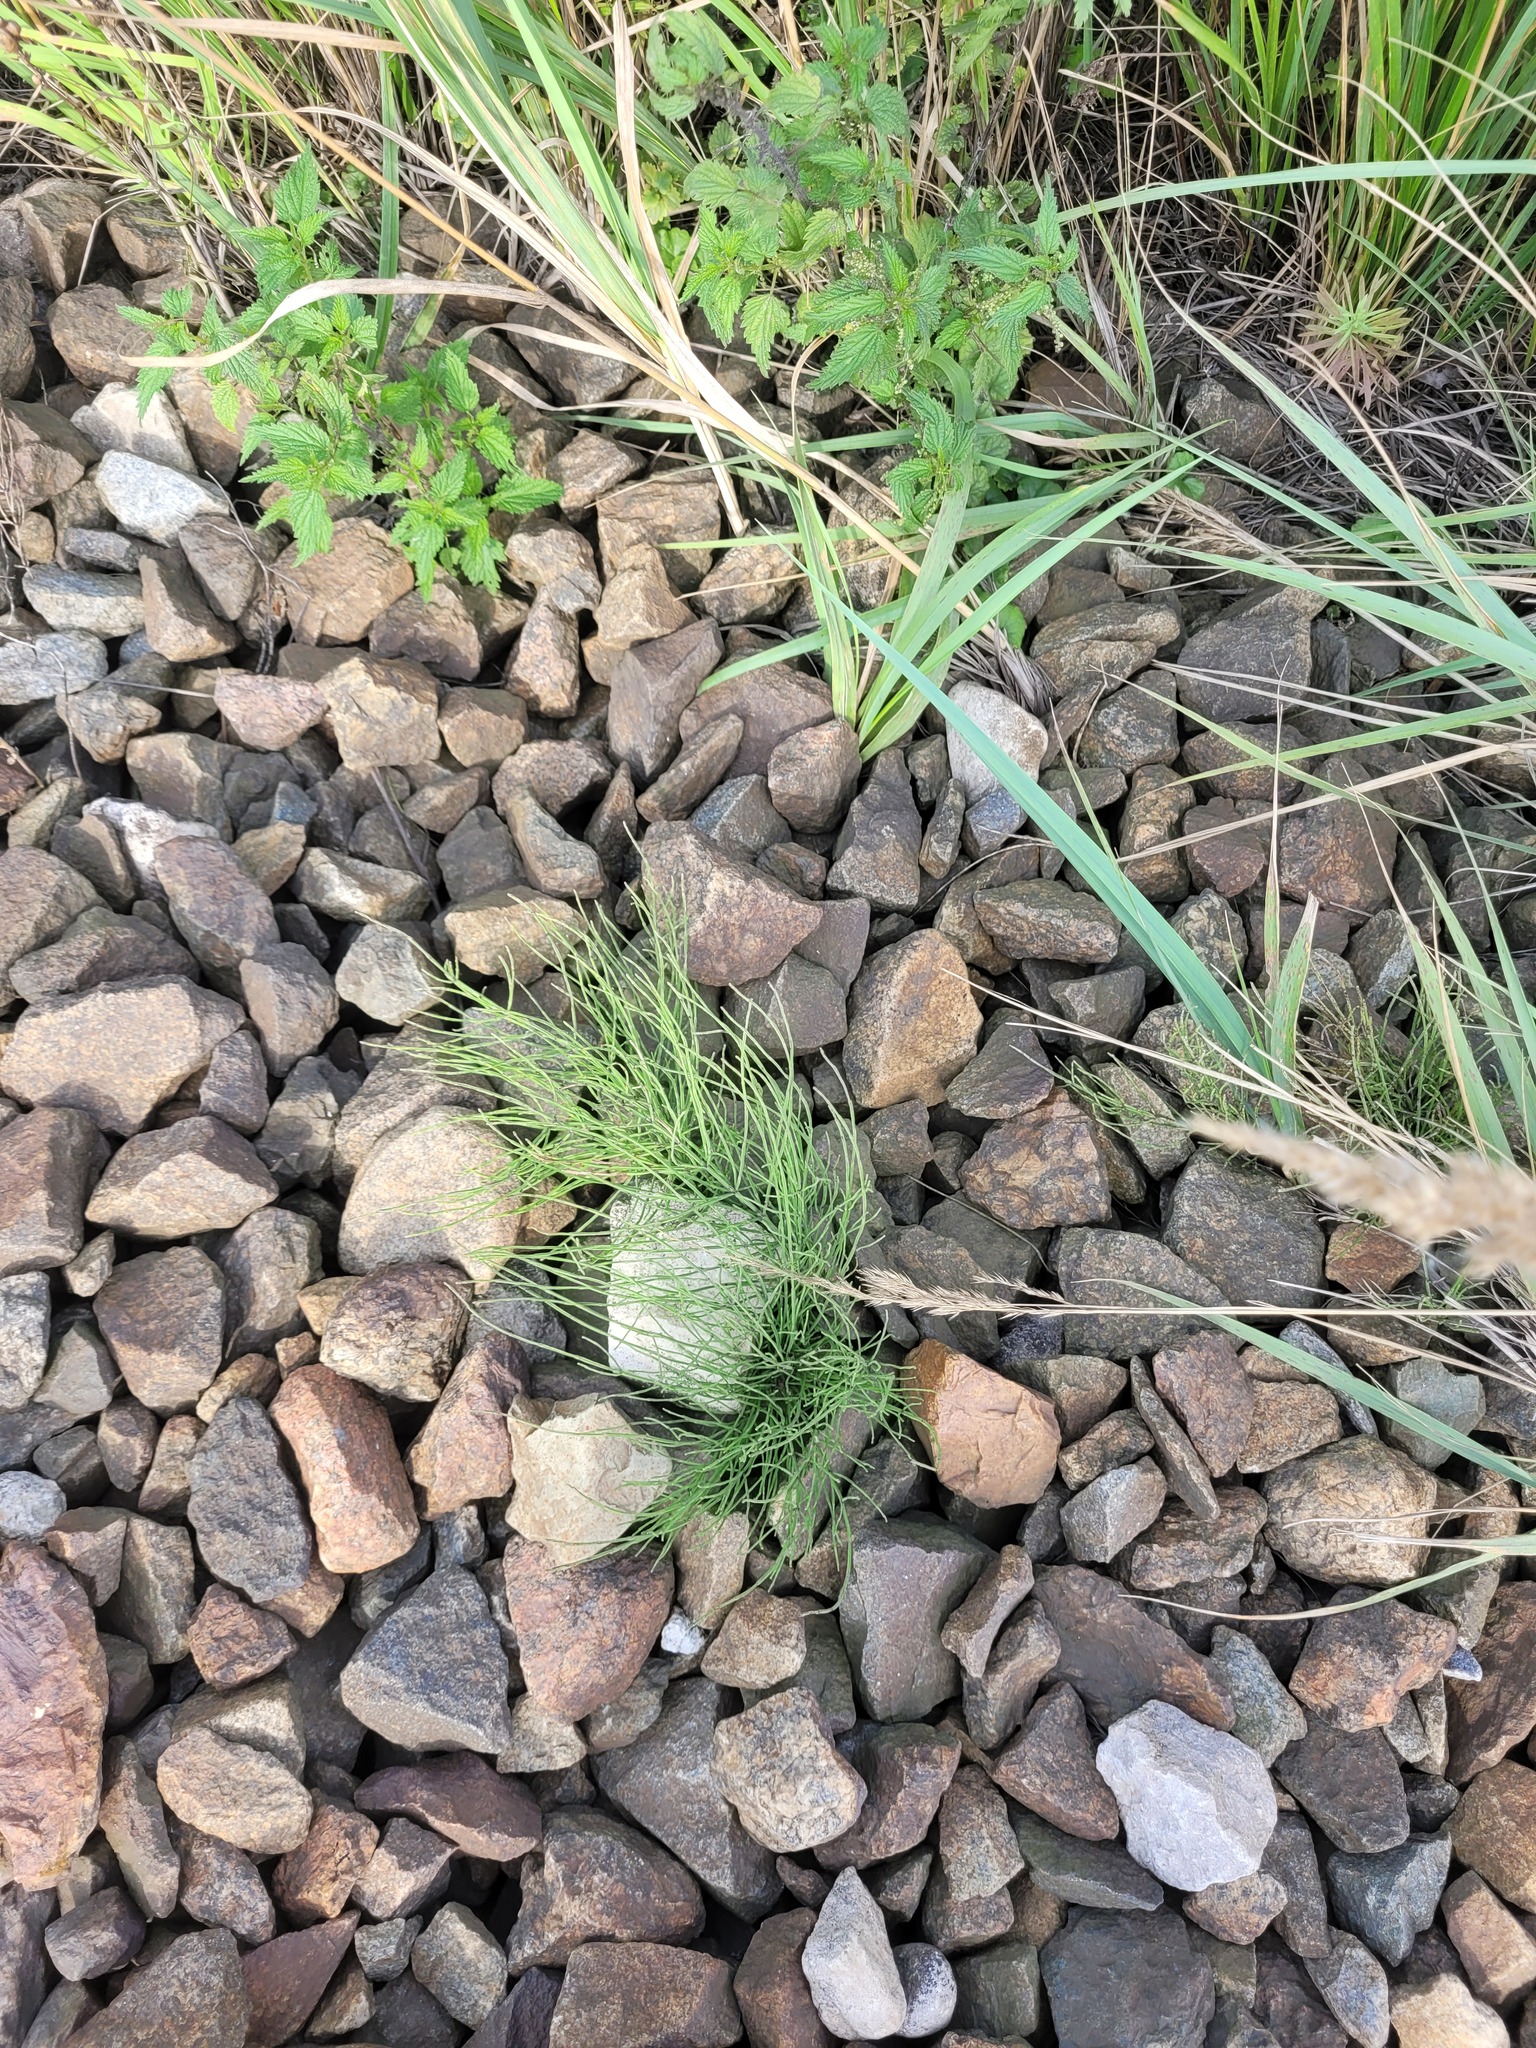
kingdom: Plantae
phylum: Tracheophyta
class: Polypodiopsida
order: Equisetales
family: Equisetaceae
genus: Equisetum
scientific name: Equisetum arvense
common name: Field horsetail
